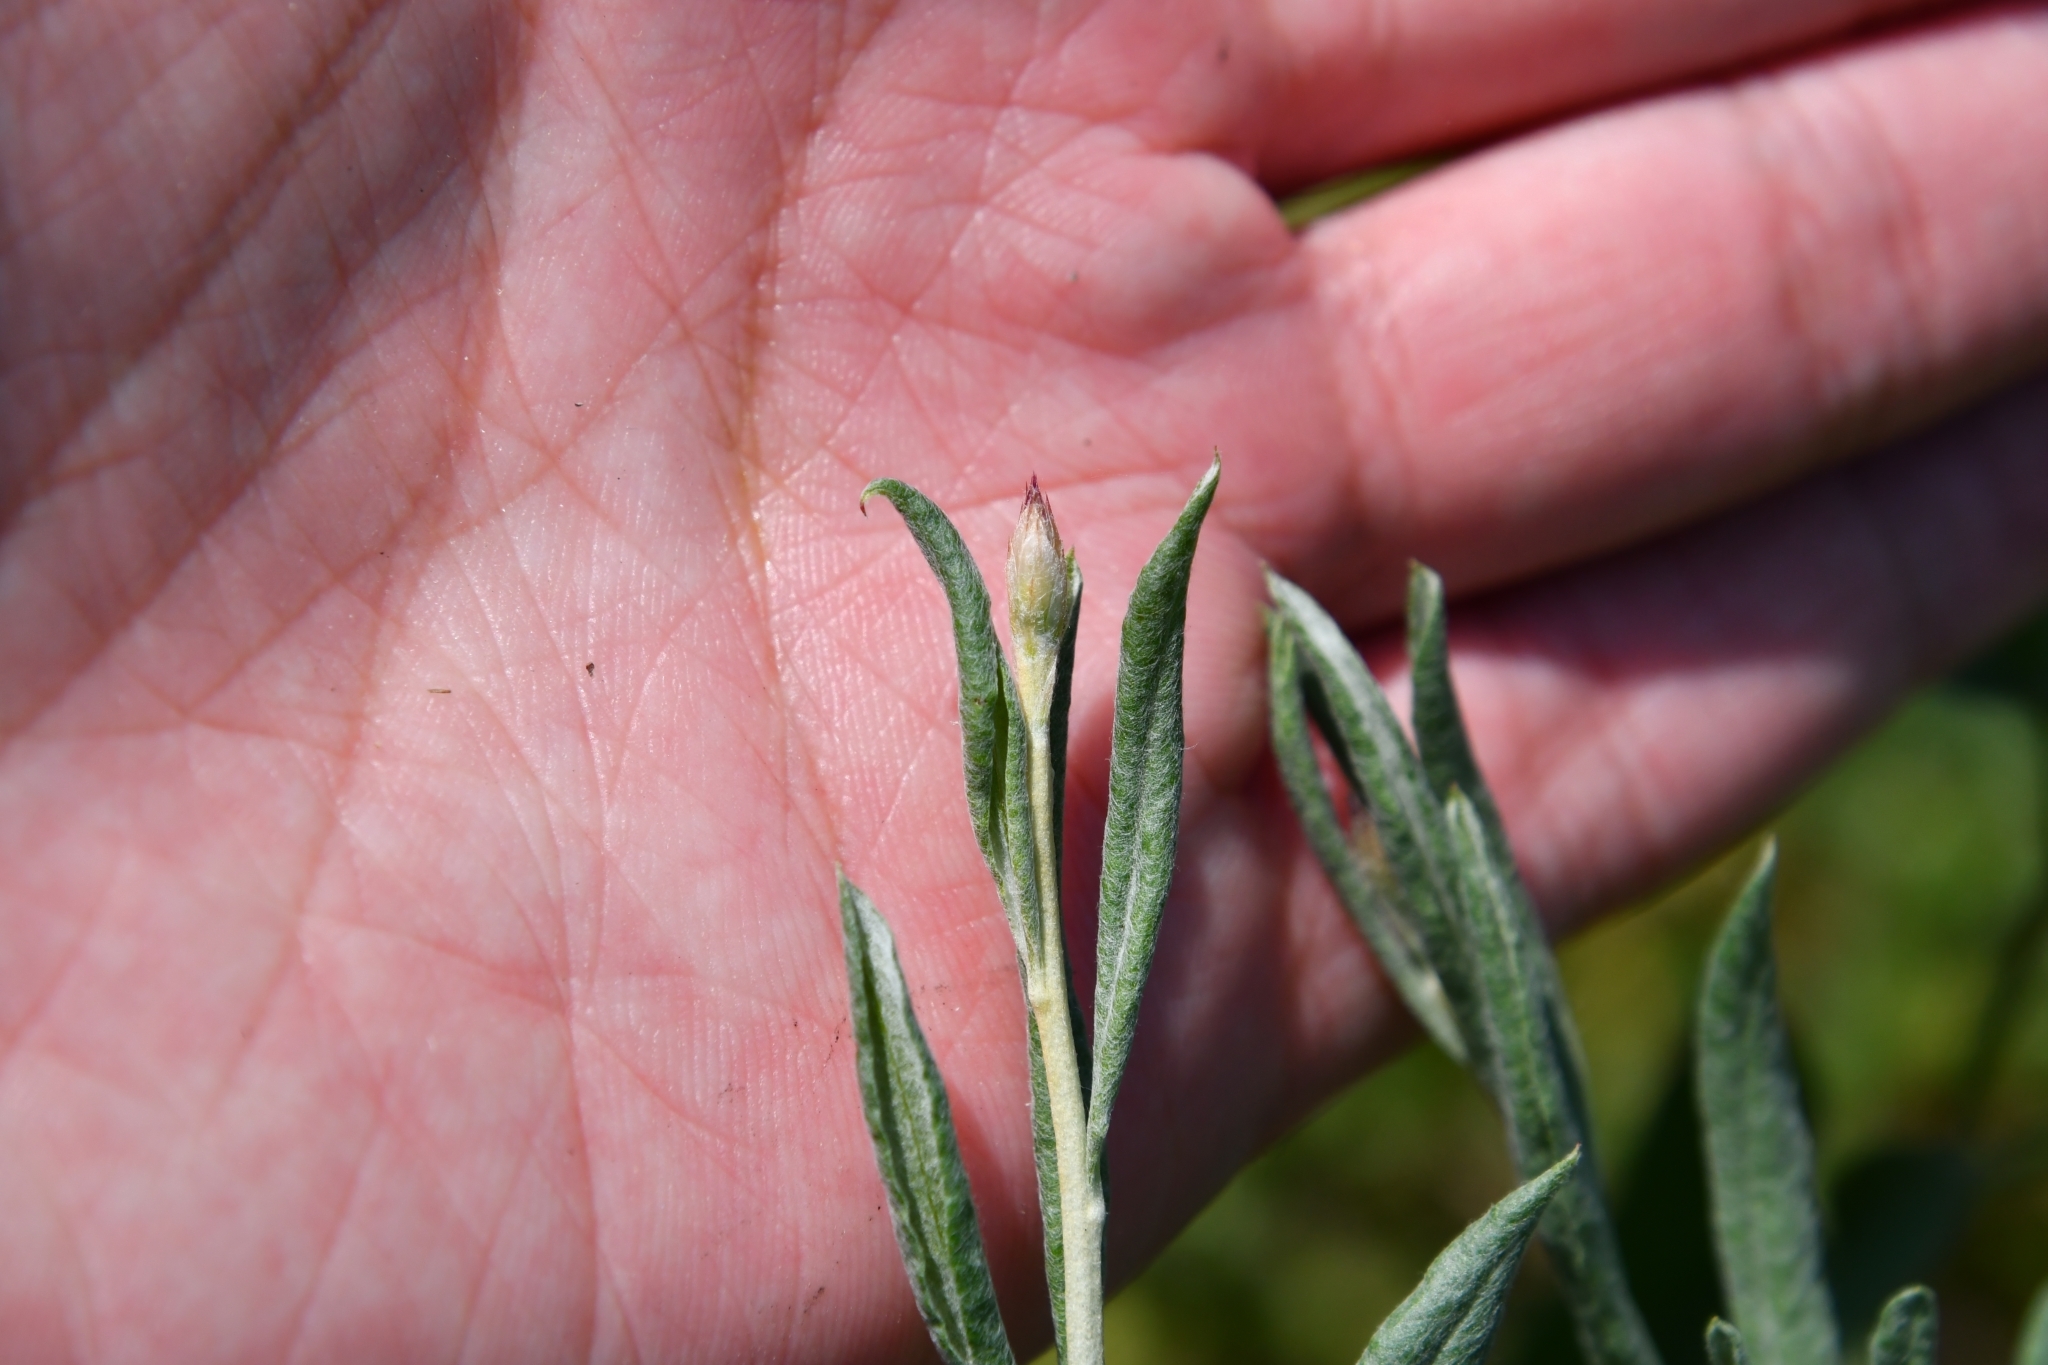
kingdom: Plantae
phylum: Tracheophyta
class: Magnoliopsida
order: Asterales
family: Asteraceae
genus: Xeranthemum
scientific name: Xeranthemum annuum
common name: Immortelle
